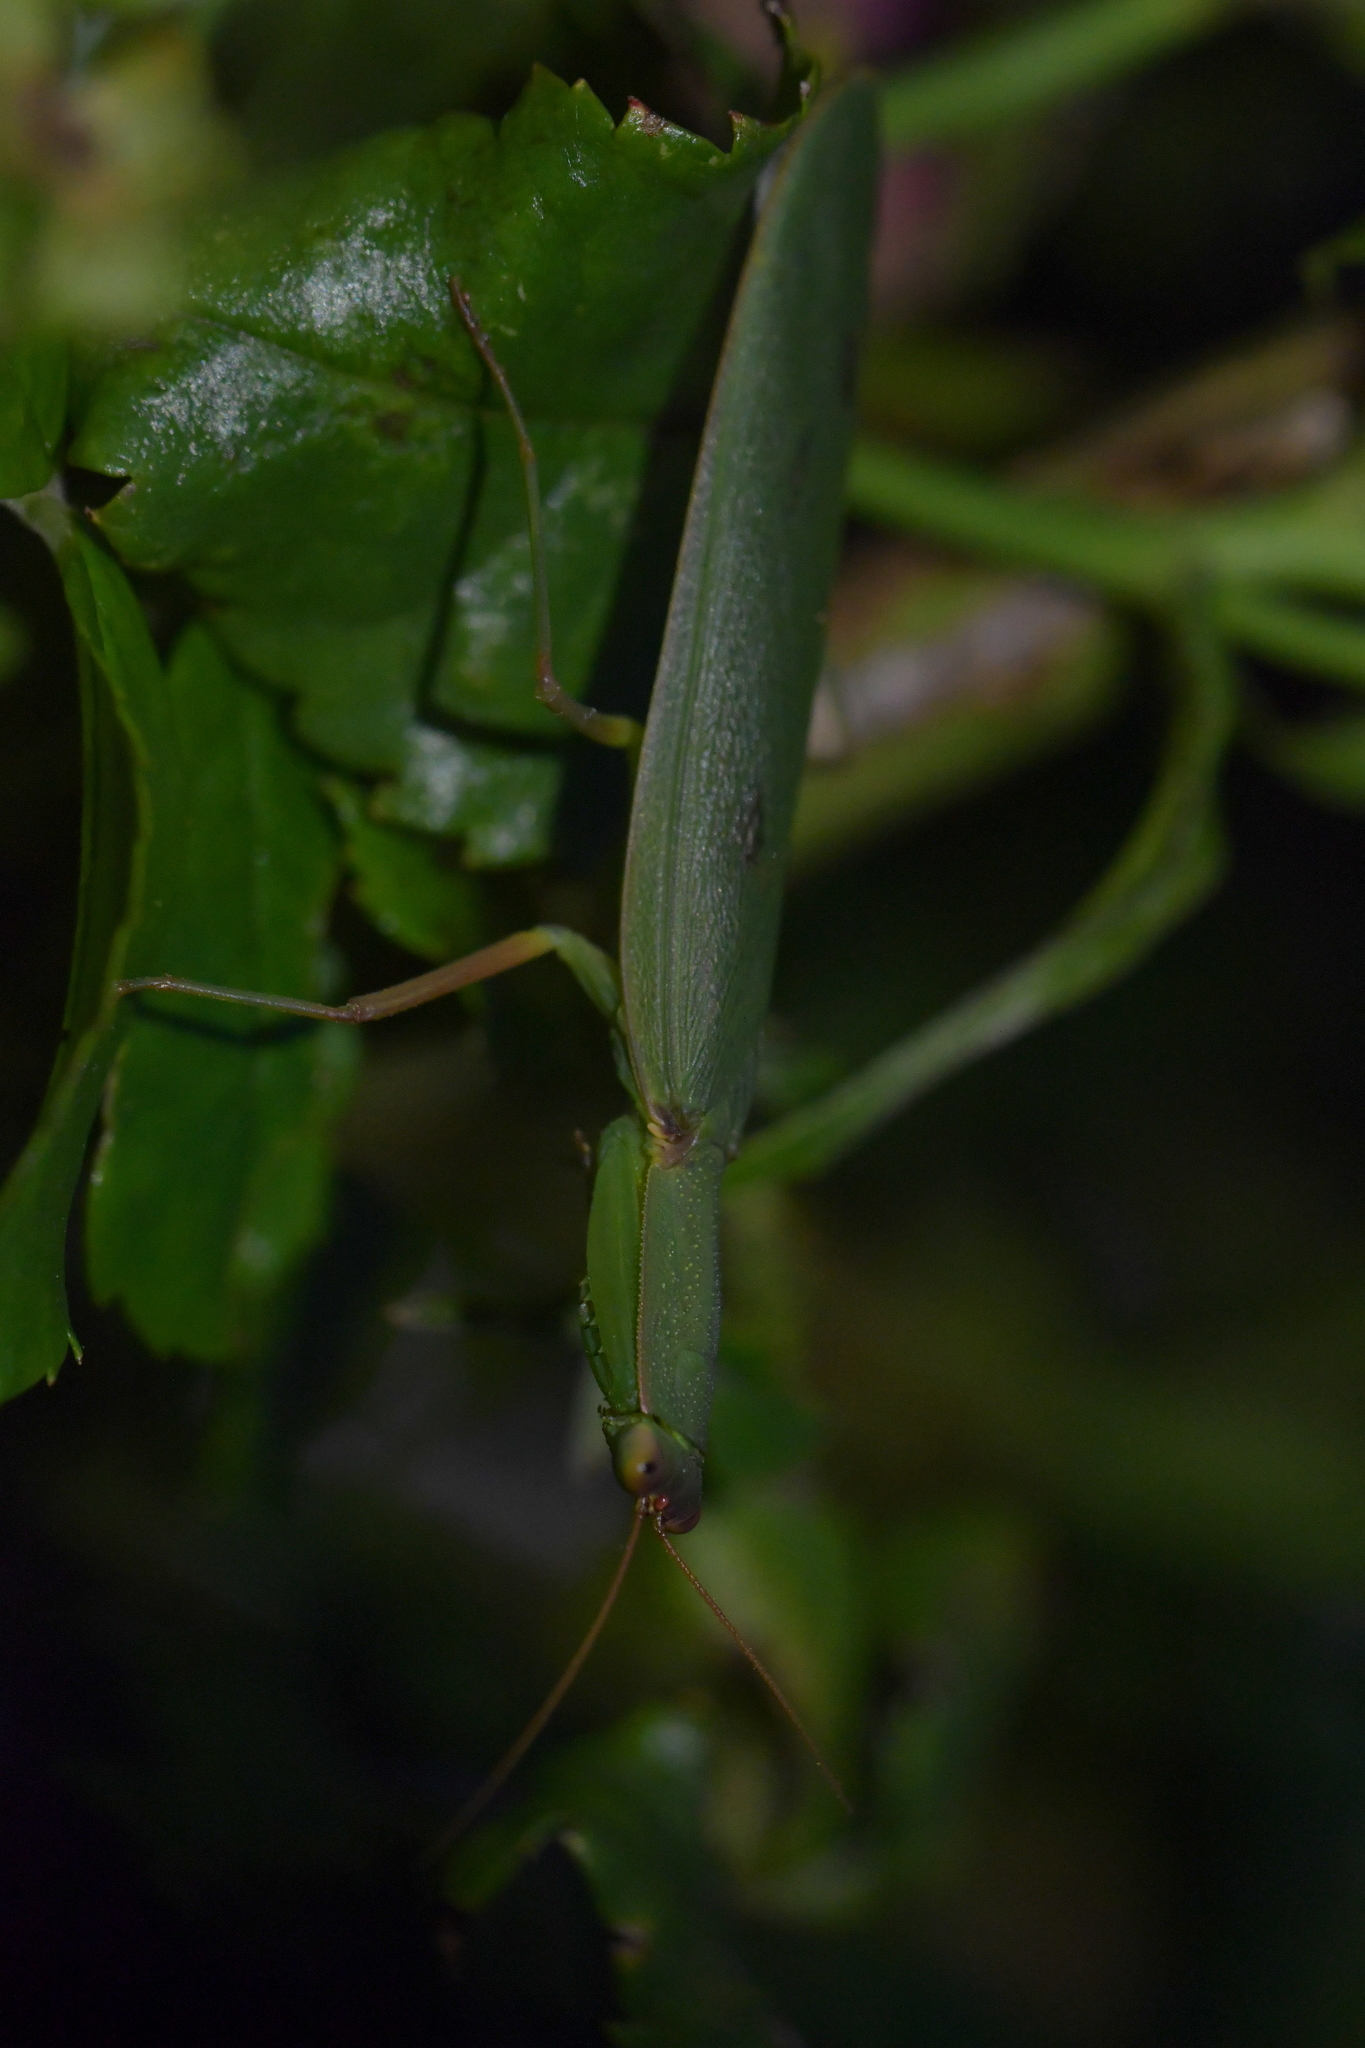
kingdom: Animalia
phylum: Arthropoda
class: Insecta
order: Mantodea
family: Mantidae
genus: Orthodera
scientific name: Orthodera novaezealandiae
